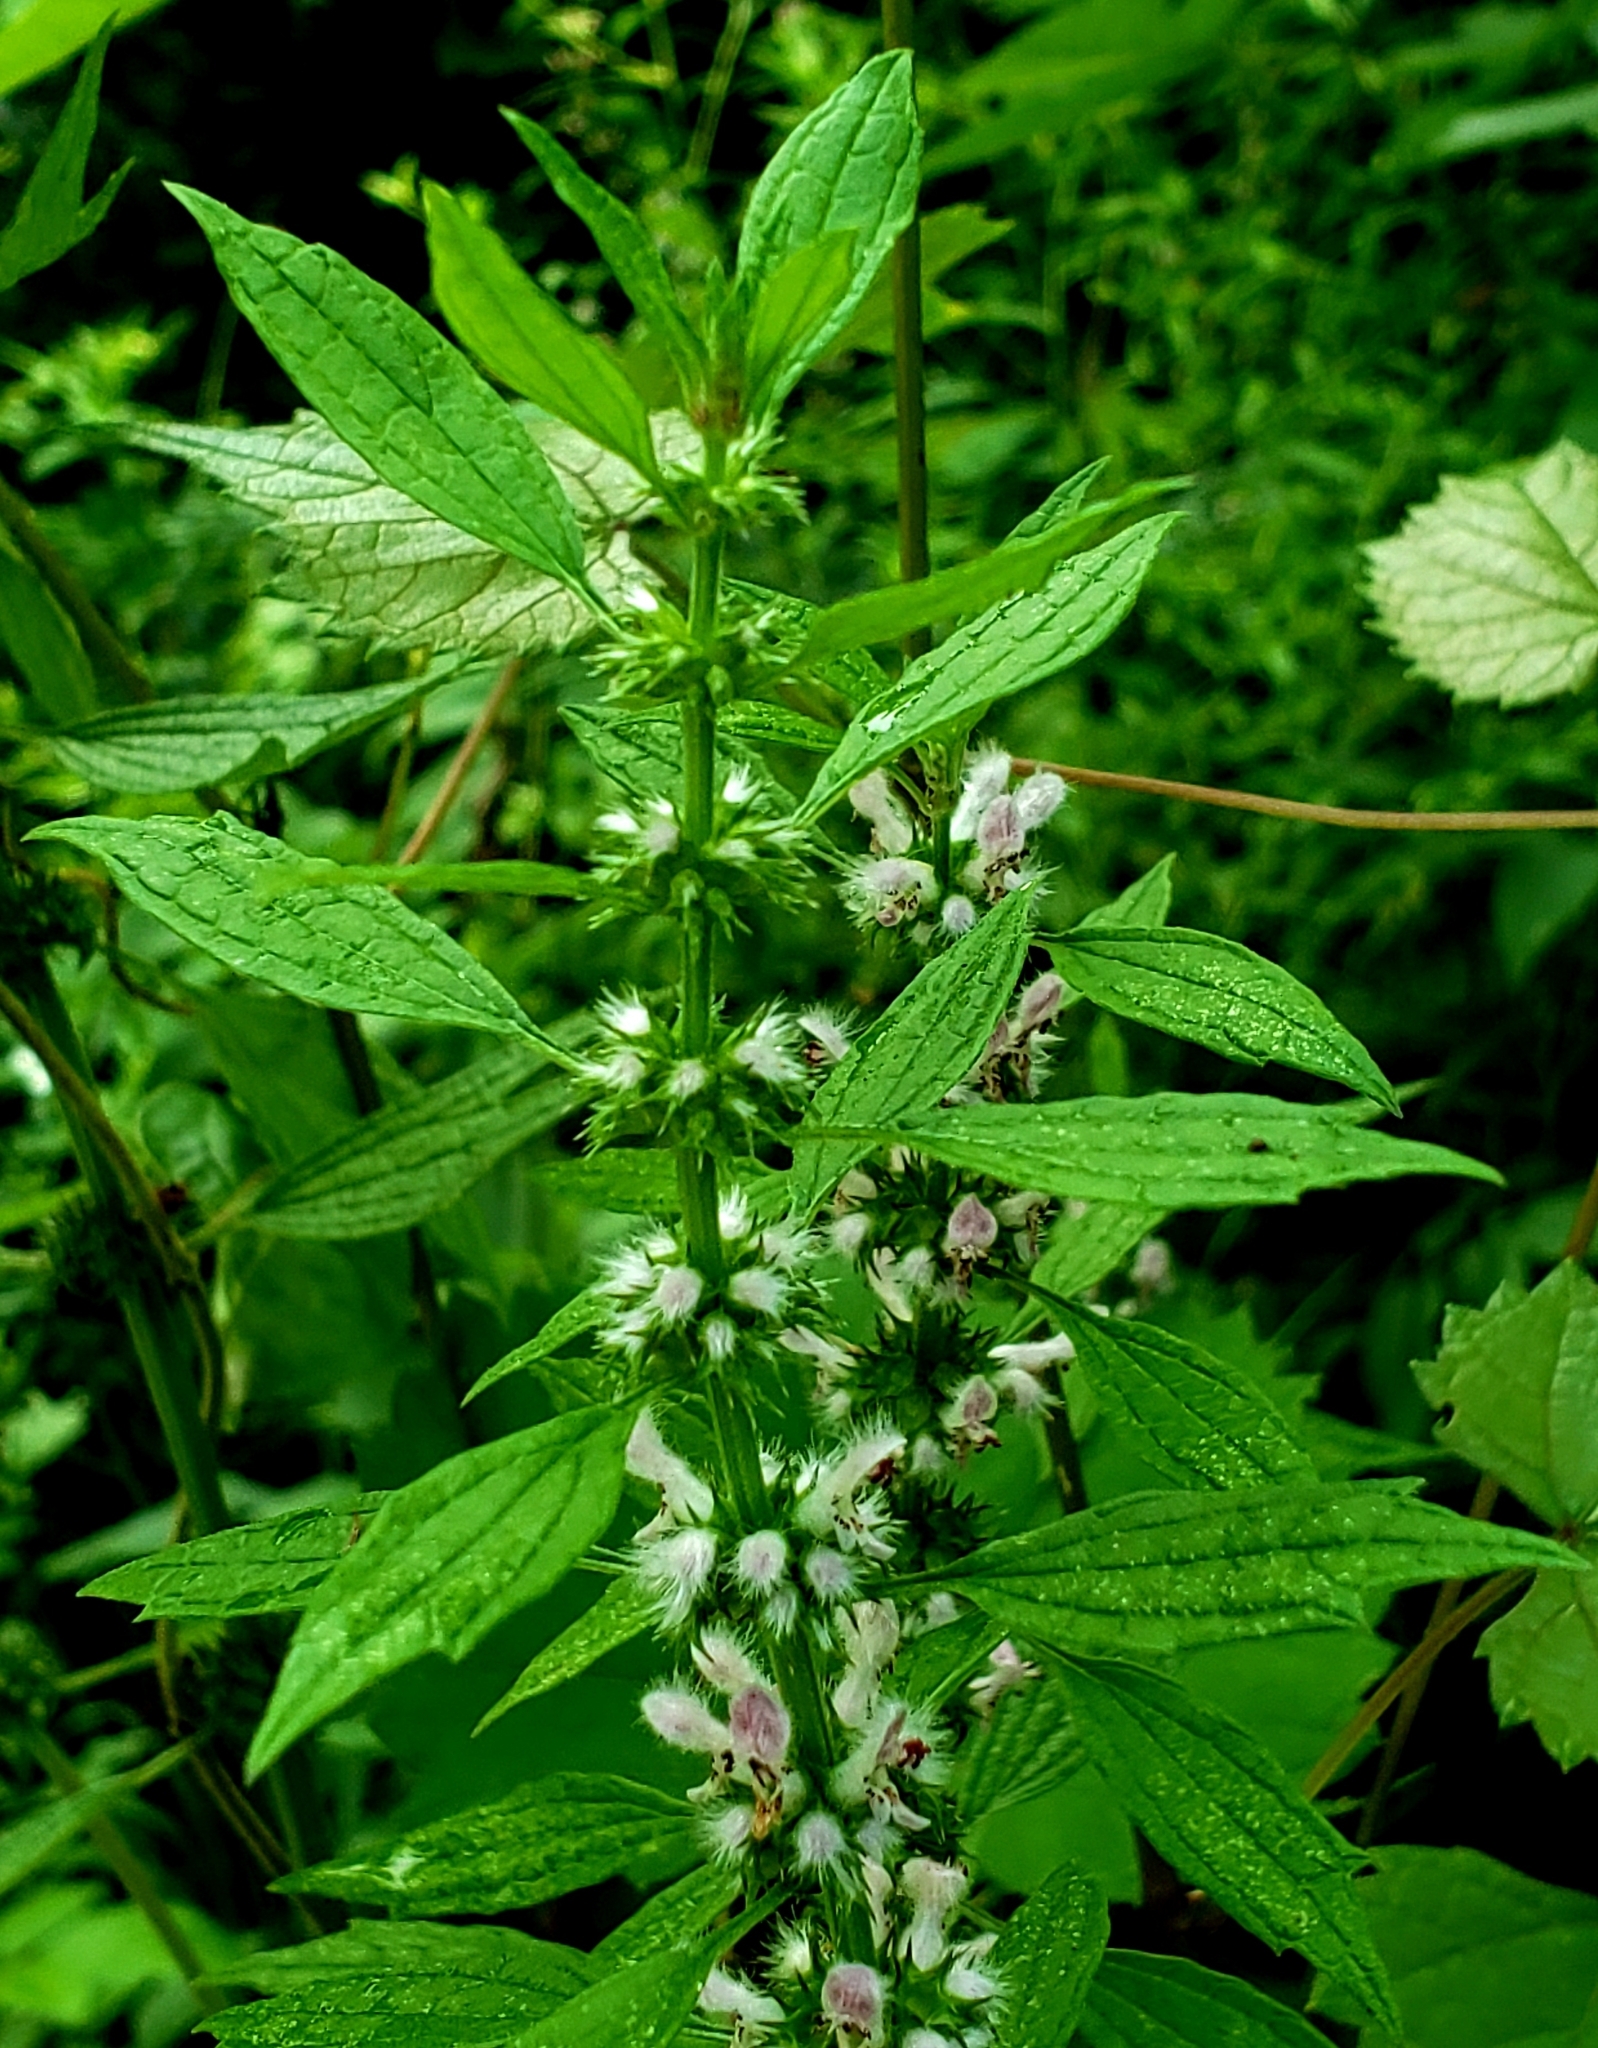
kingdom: Plantae
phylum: Tracheophyta
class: Magnoliopsida
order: Lamiales
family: Lamiaceae
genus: Leonurus
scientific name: Leonurus cardiaca
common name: Motherwort
